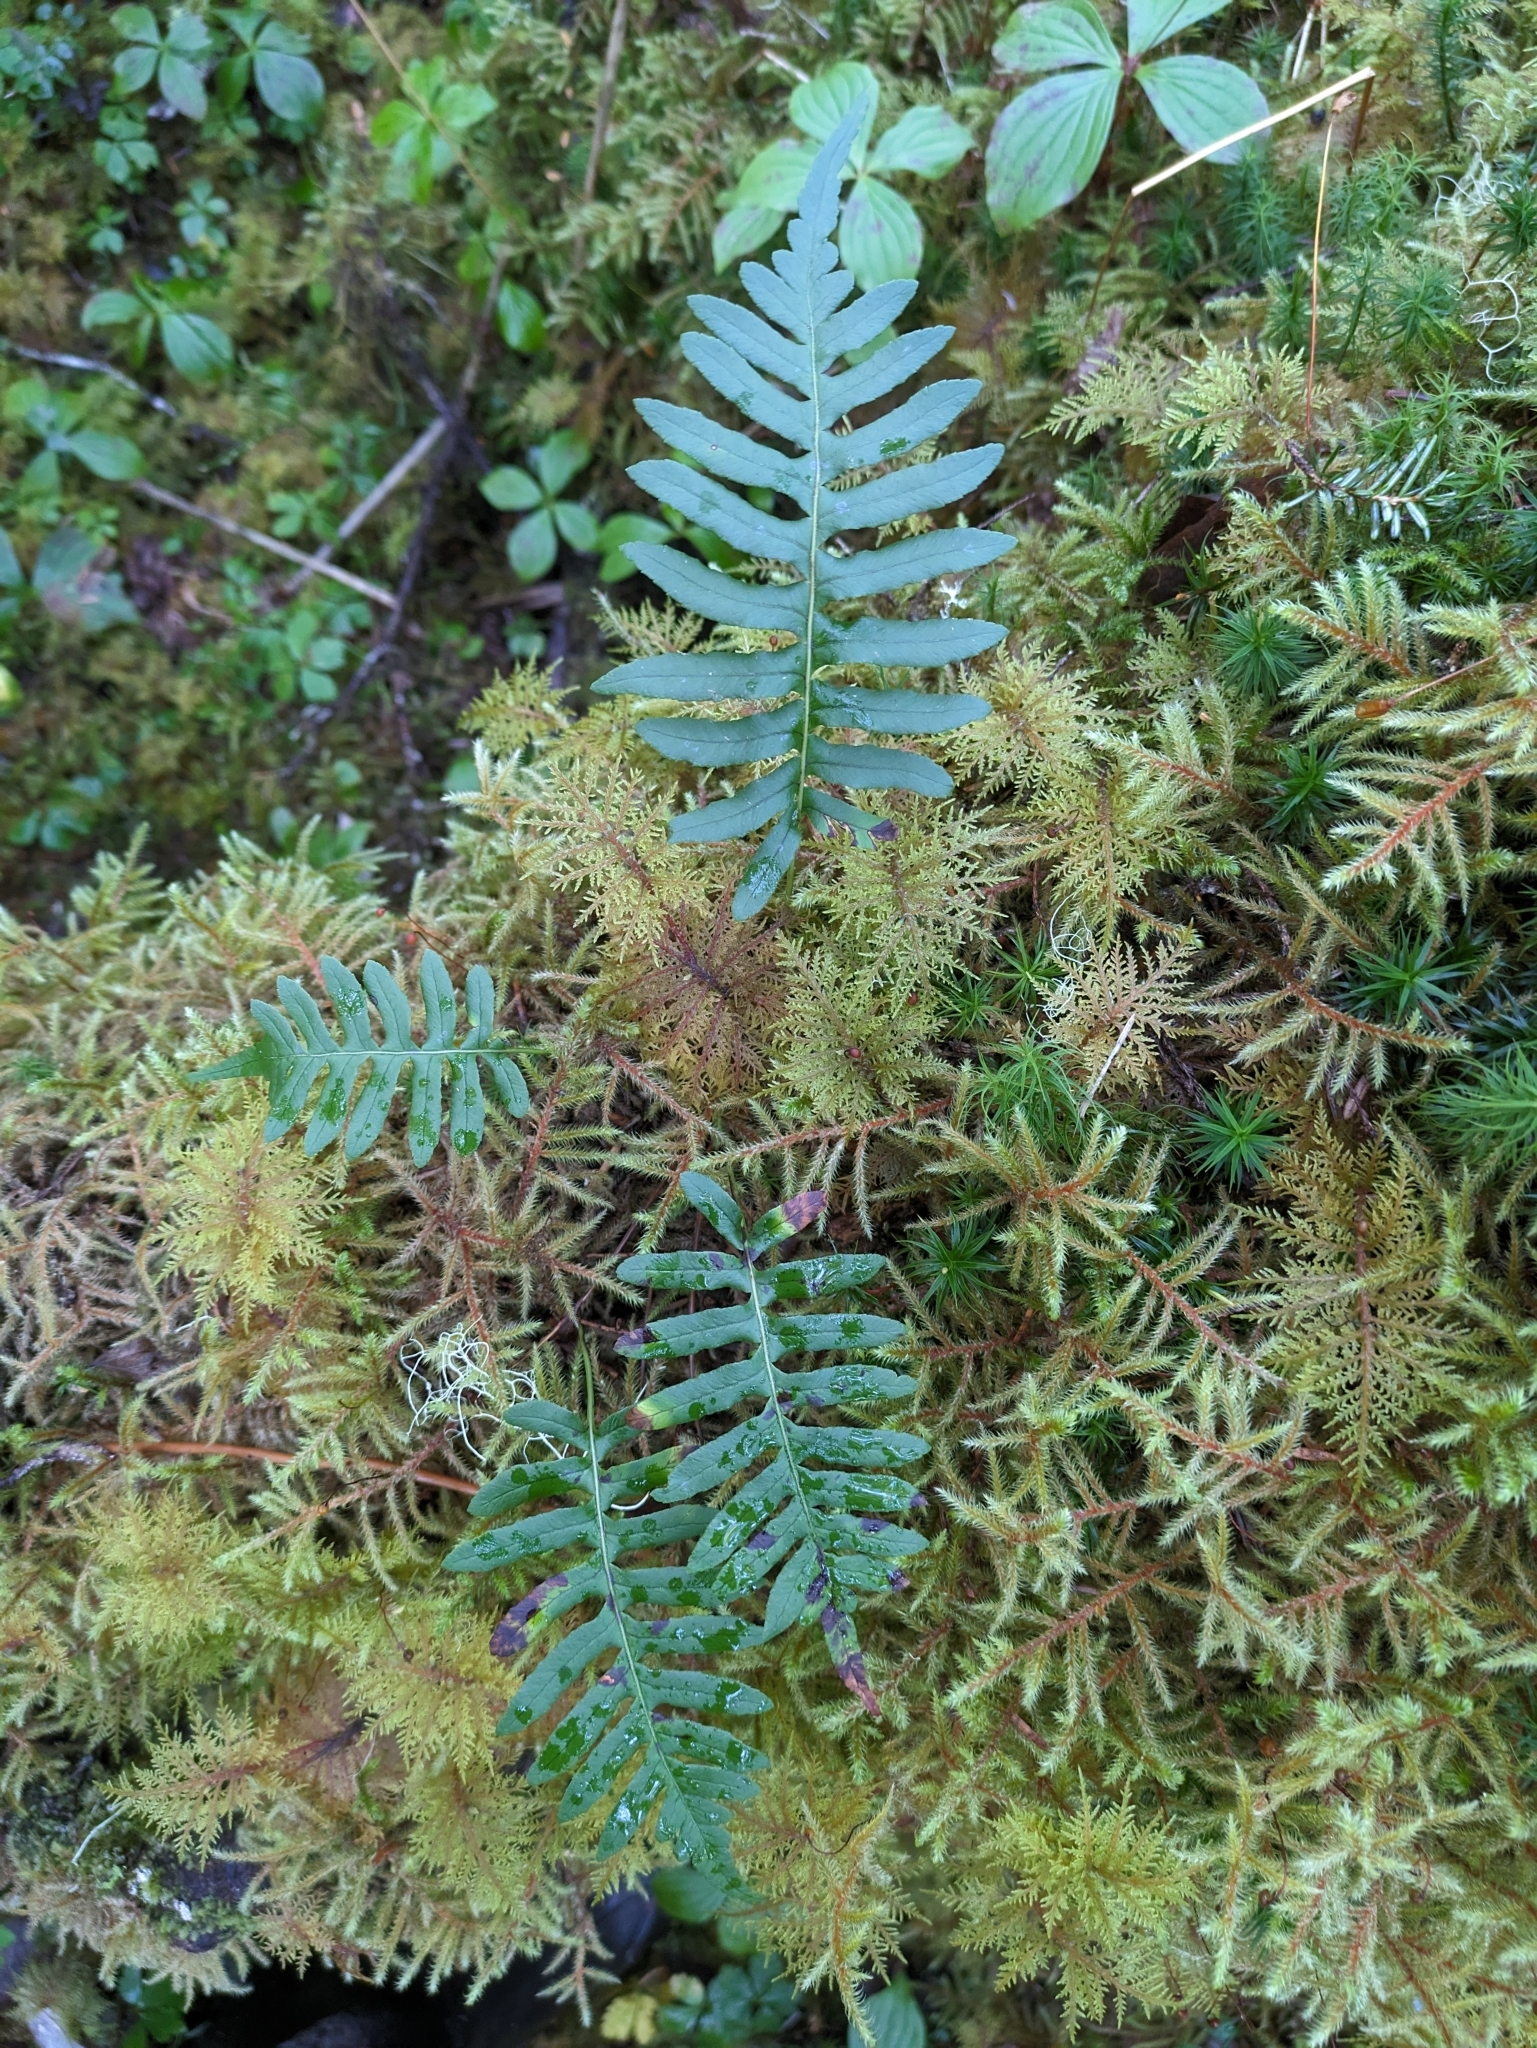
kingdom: Plantae
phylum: Tracheophyta
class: Polypodiopsida
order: Polypodiales
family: Polypodiaceae
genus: Polypodium
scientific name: Polypodium glycyrrhiza
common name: Licorice fern
